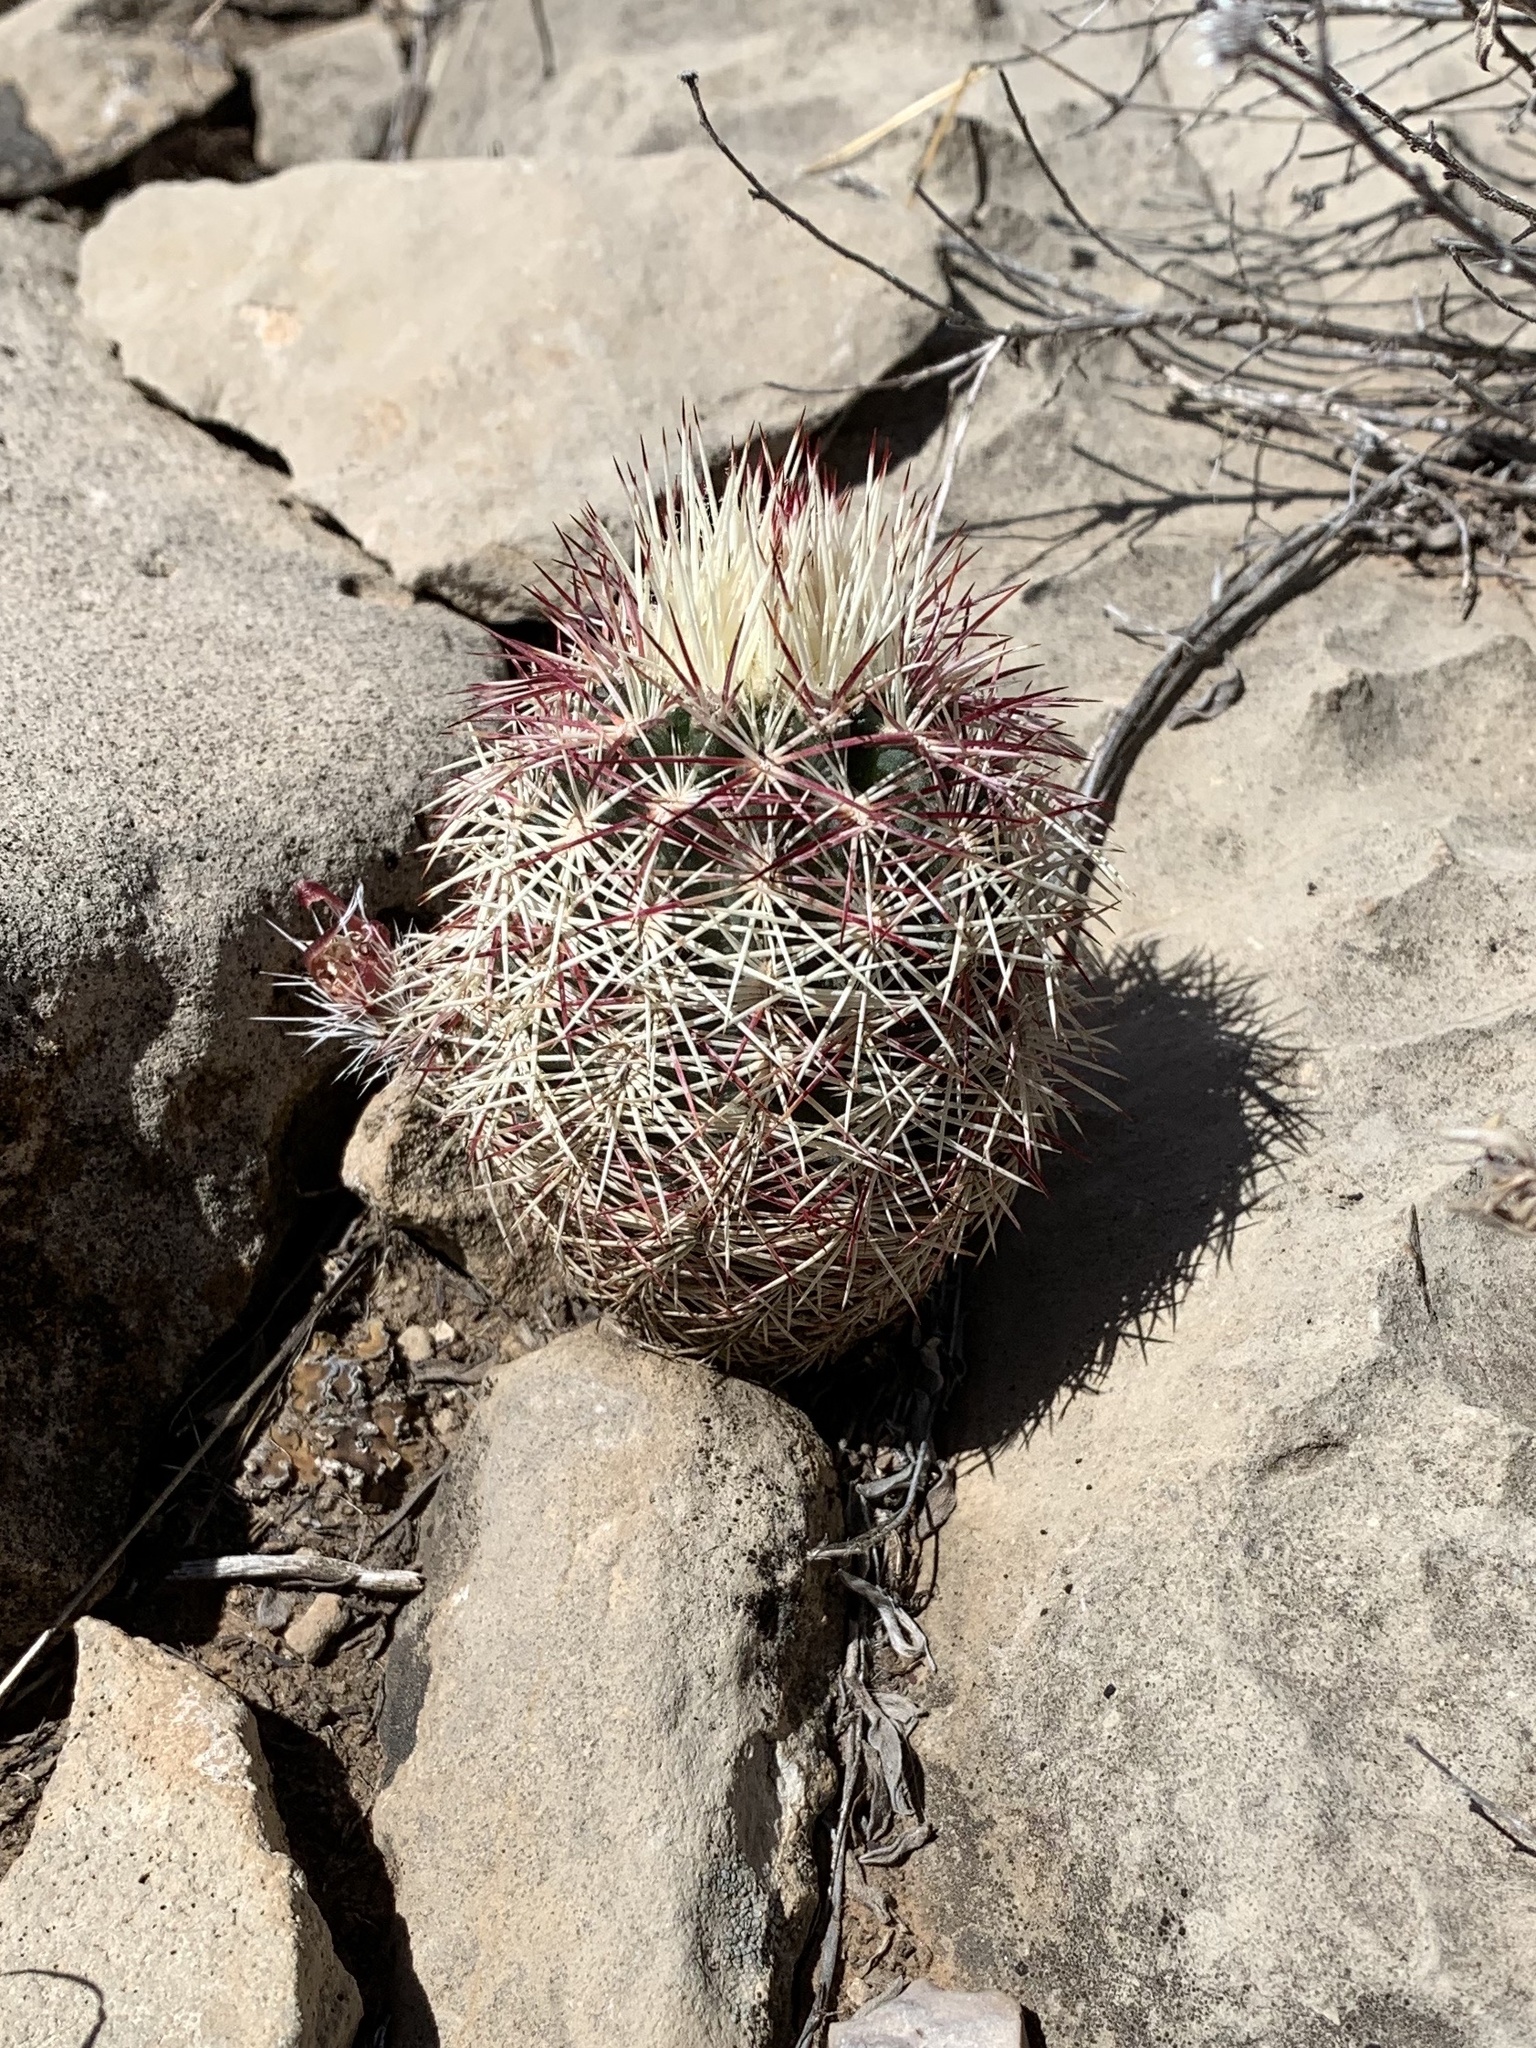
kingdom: Plantae
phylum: Tracheophyta
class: Magnoliopsida
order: Caryophyllales
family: Cactaceae
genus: Echinocereus
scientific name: Echinocereus viridiflorus
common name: Nylon hedgehog cactus
